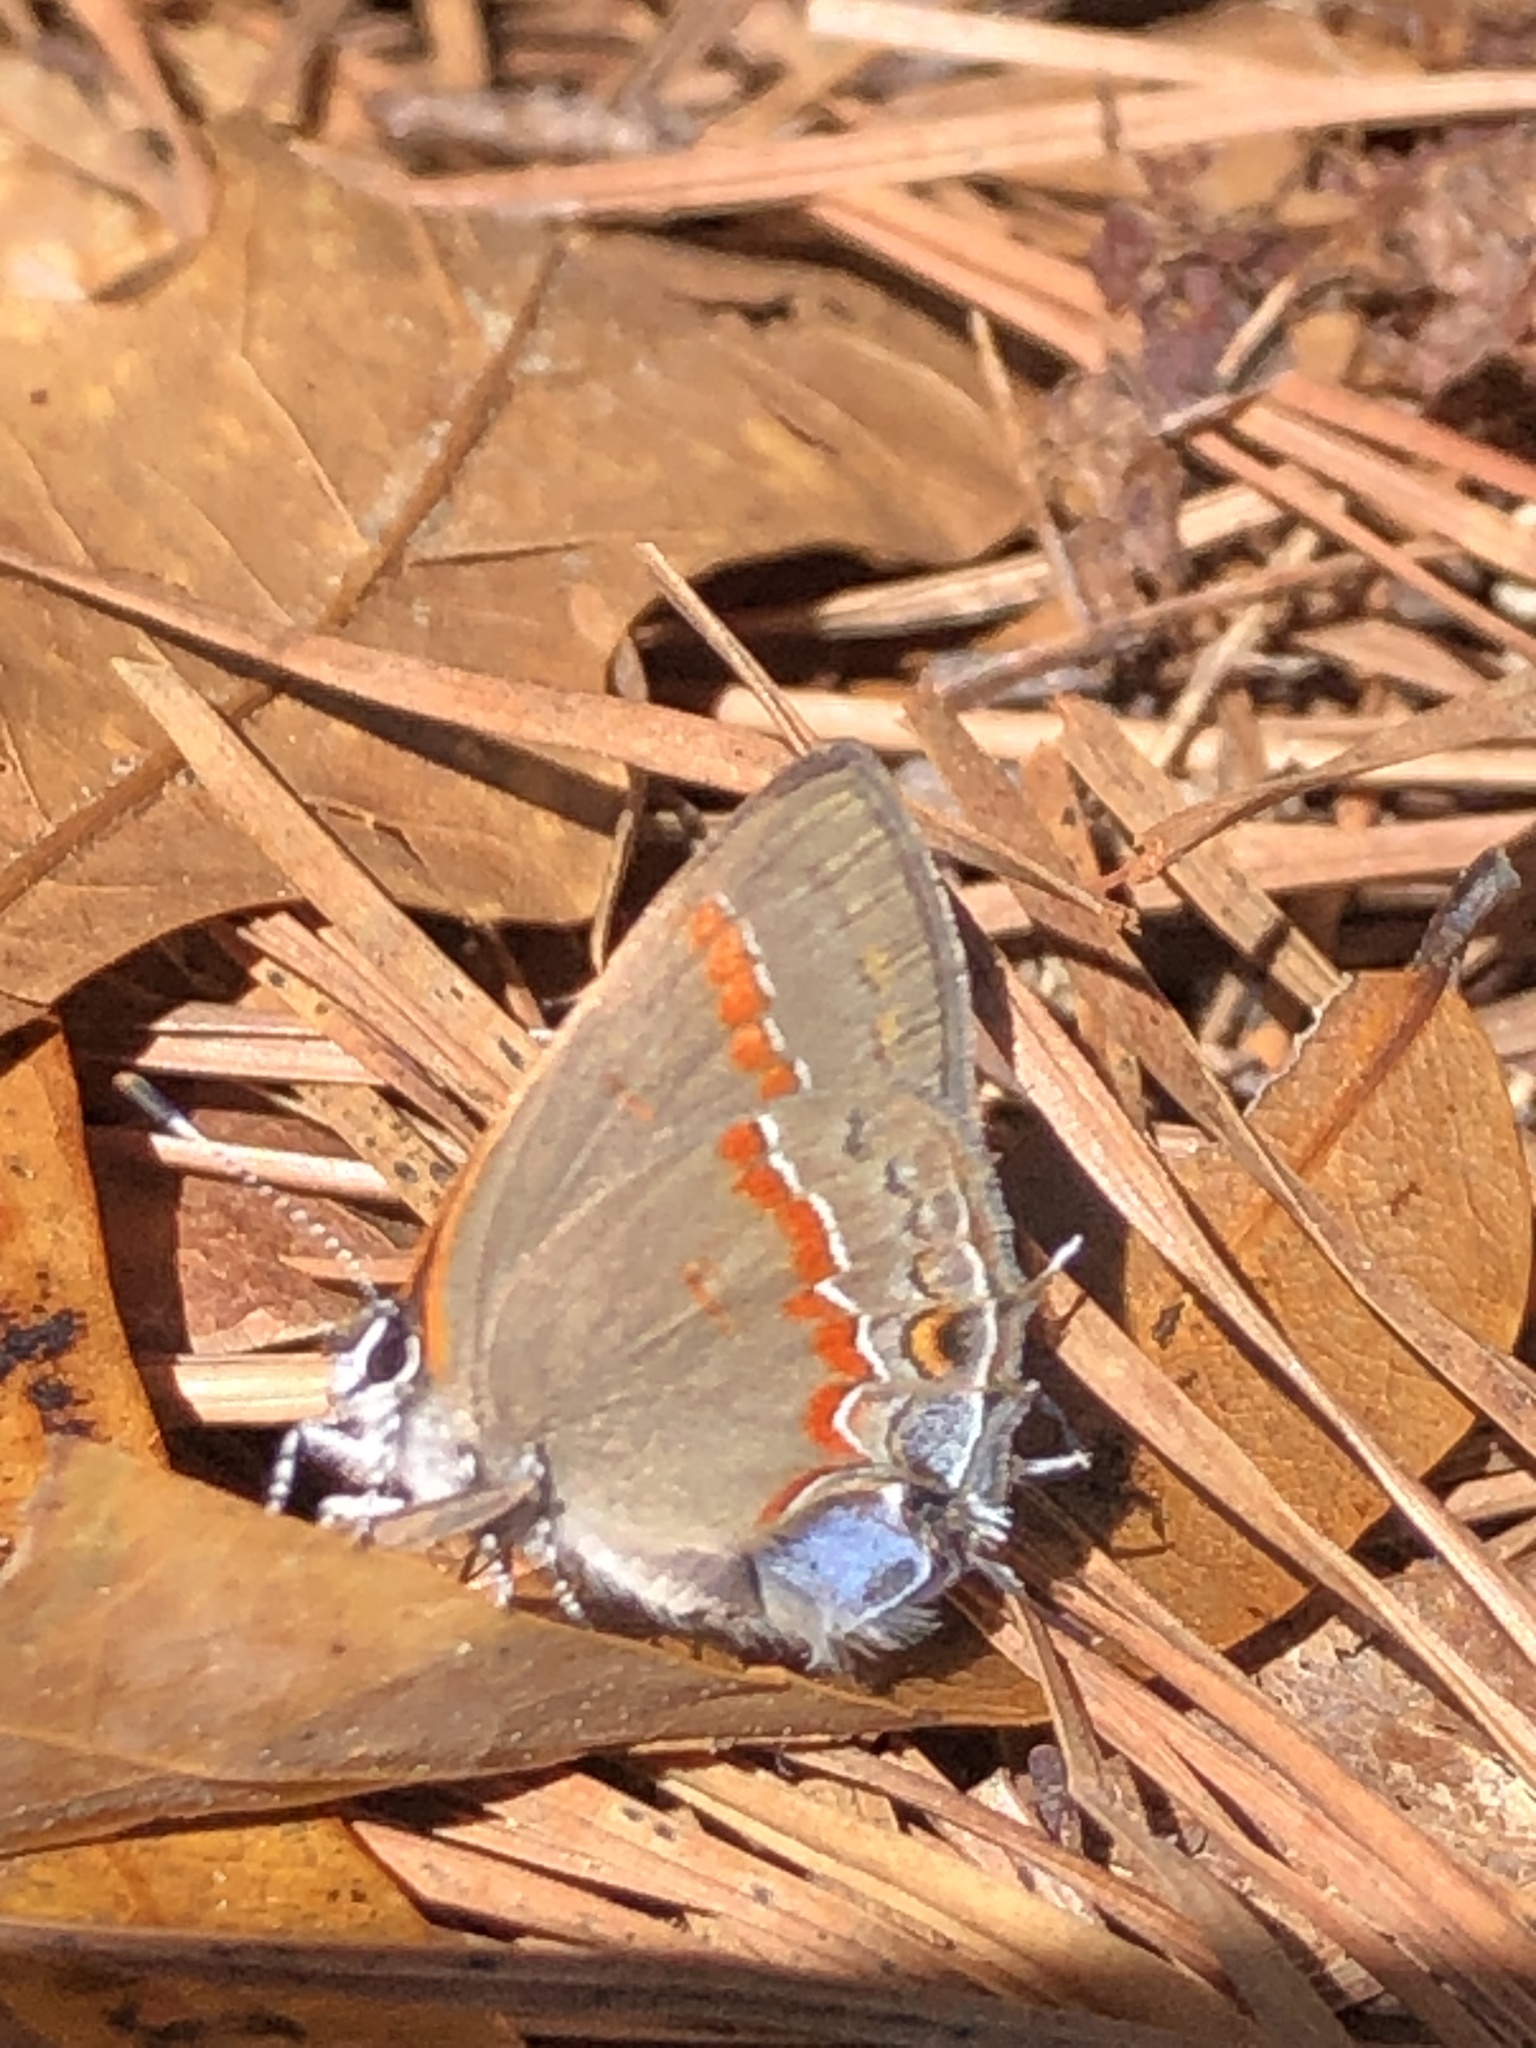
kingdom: Animalia
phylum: Arthropoda
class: Insecta
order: Lepidoptera
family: Lycaenidae
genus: Calycopis
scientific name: Calycopis cecrops
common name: Red-banded hairstreak
